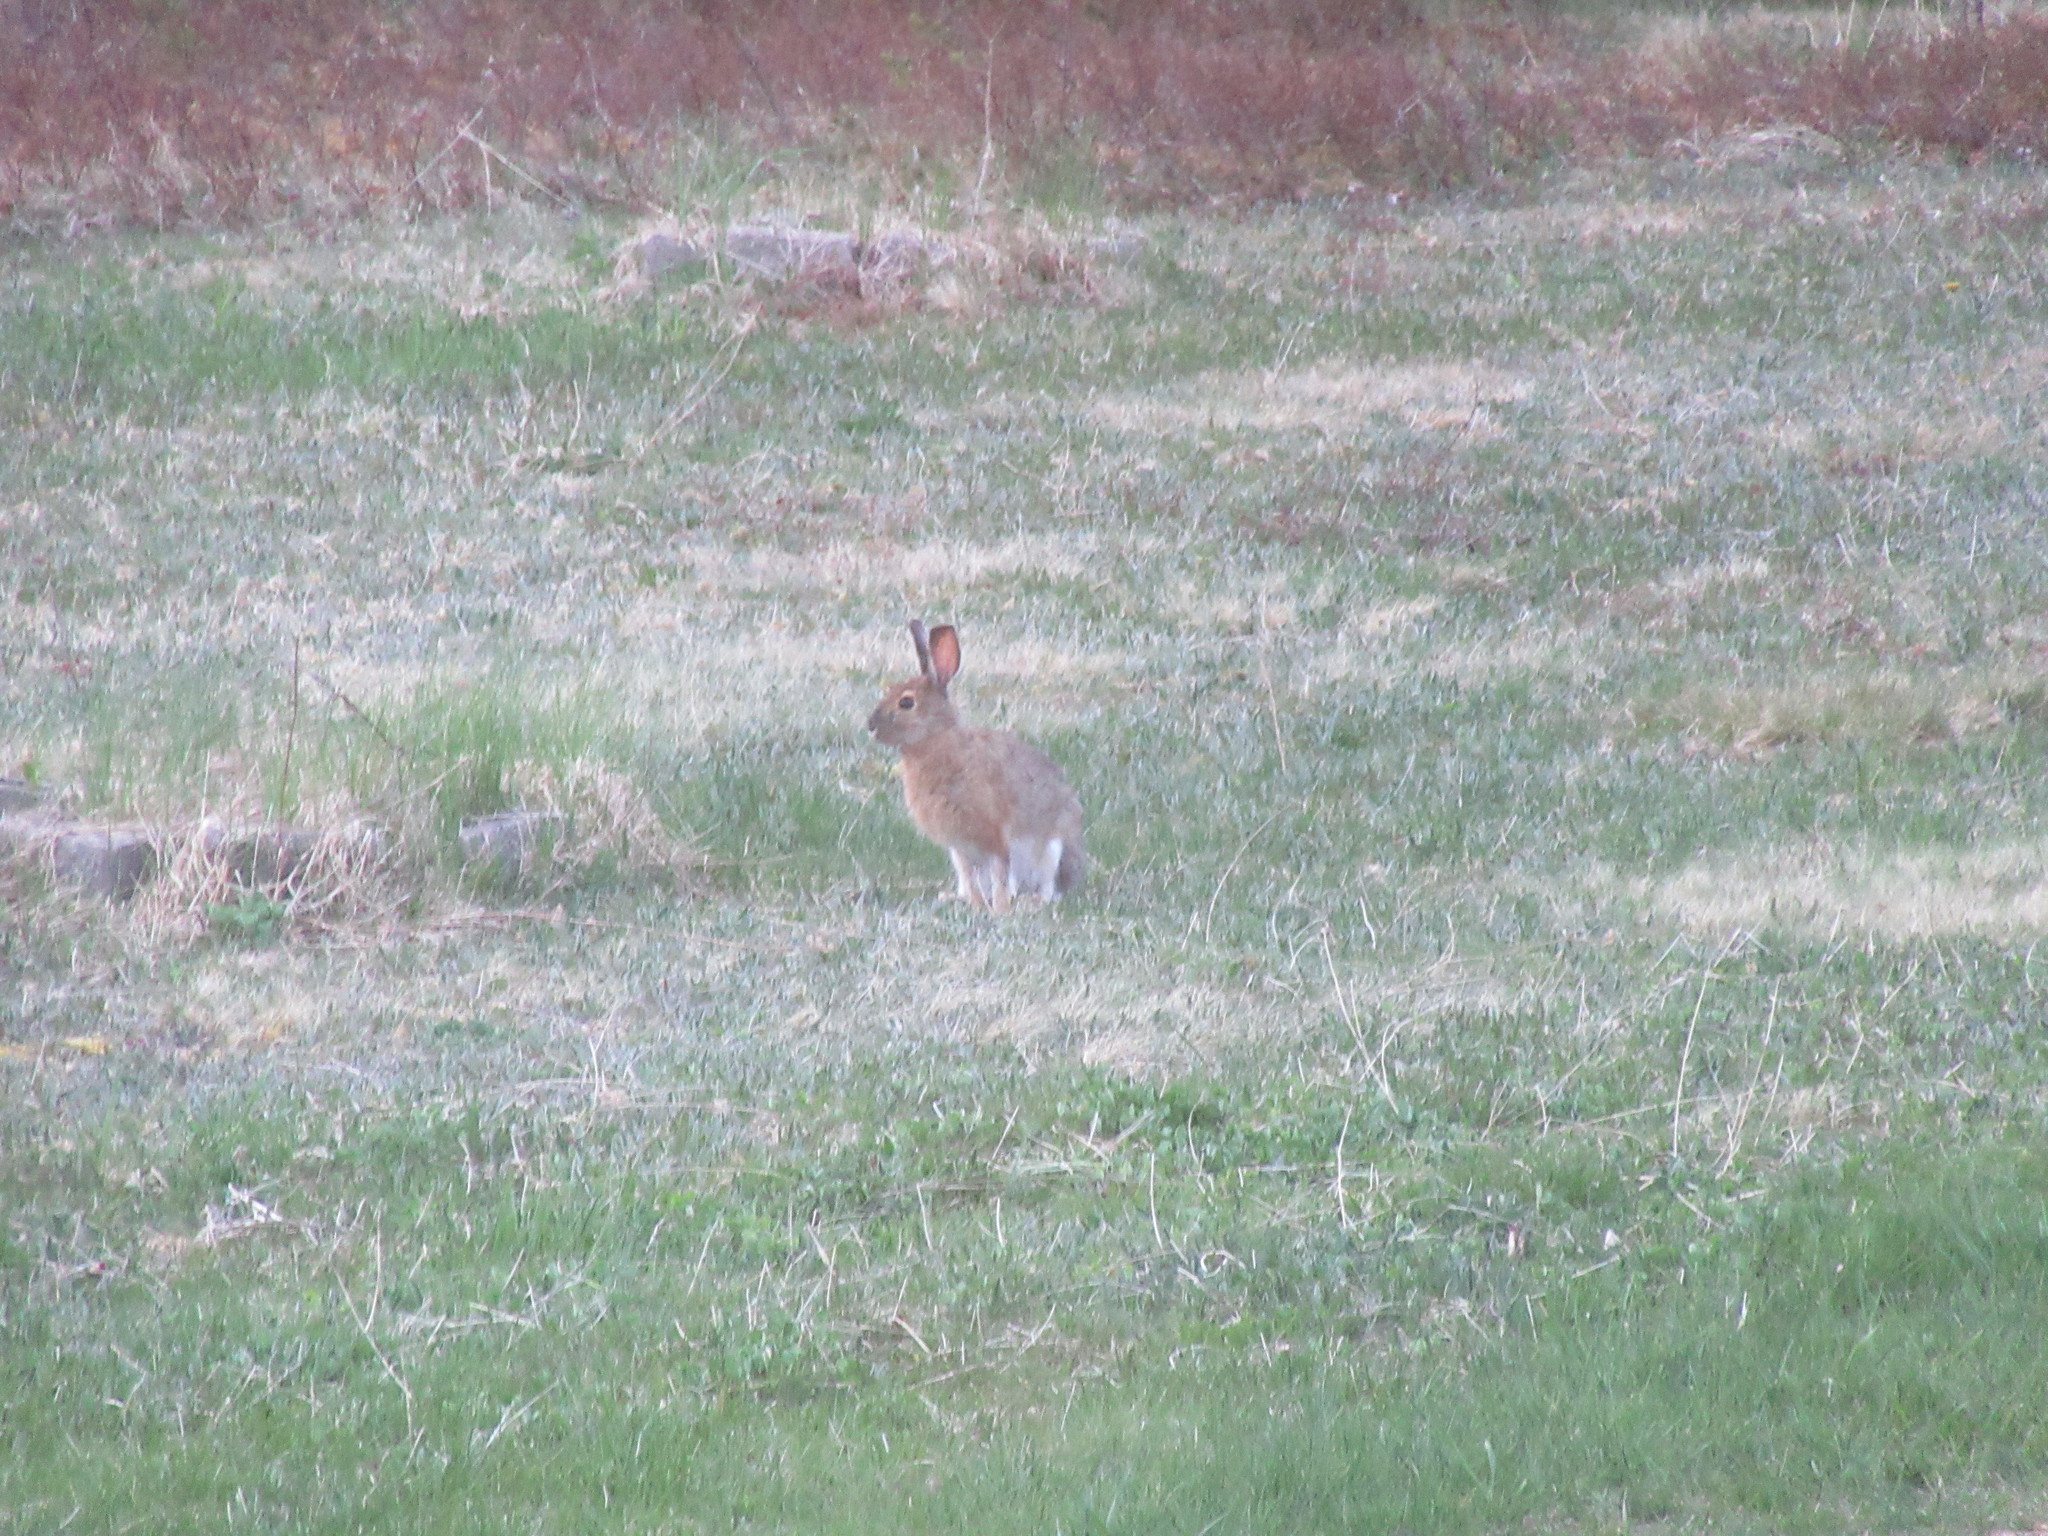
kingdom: Animalia
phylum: Chordata
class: Mammalia
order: Lagomorpha
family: Leporidae
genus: Lepus
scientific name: Lepus americanus
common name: Snowshoe hare
